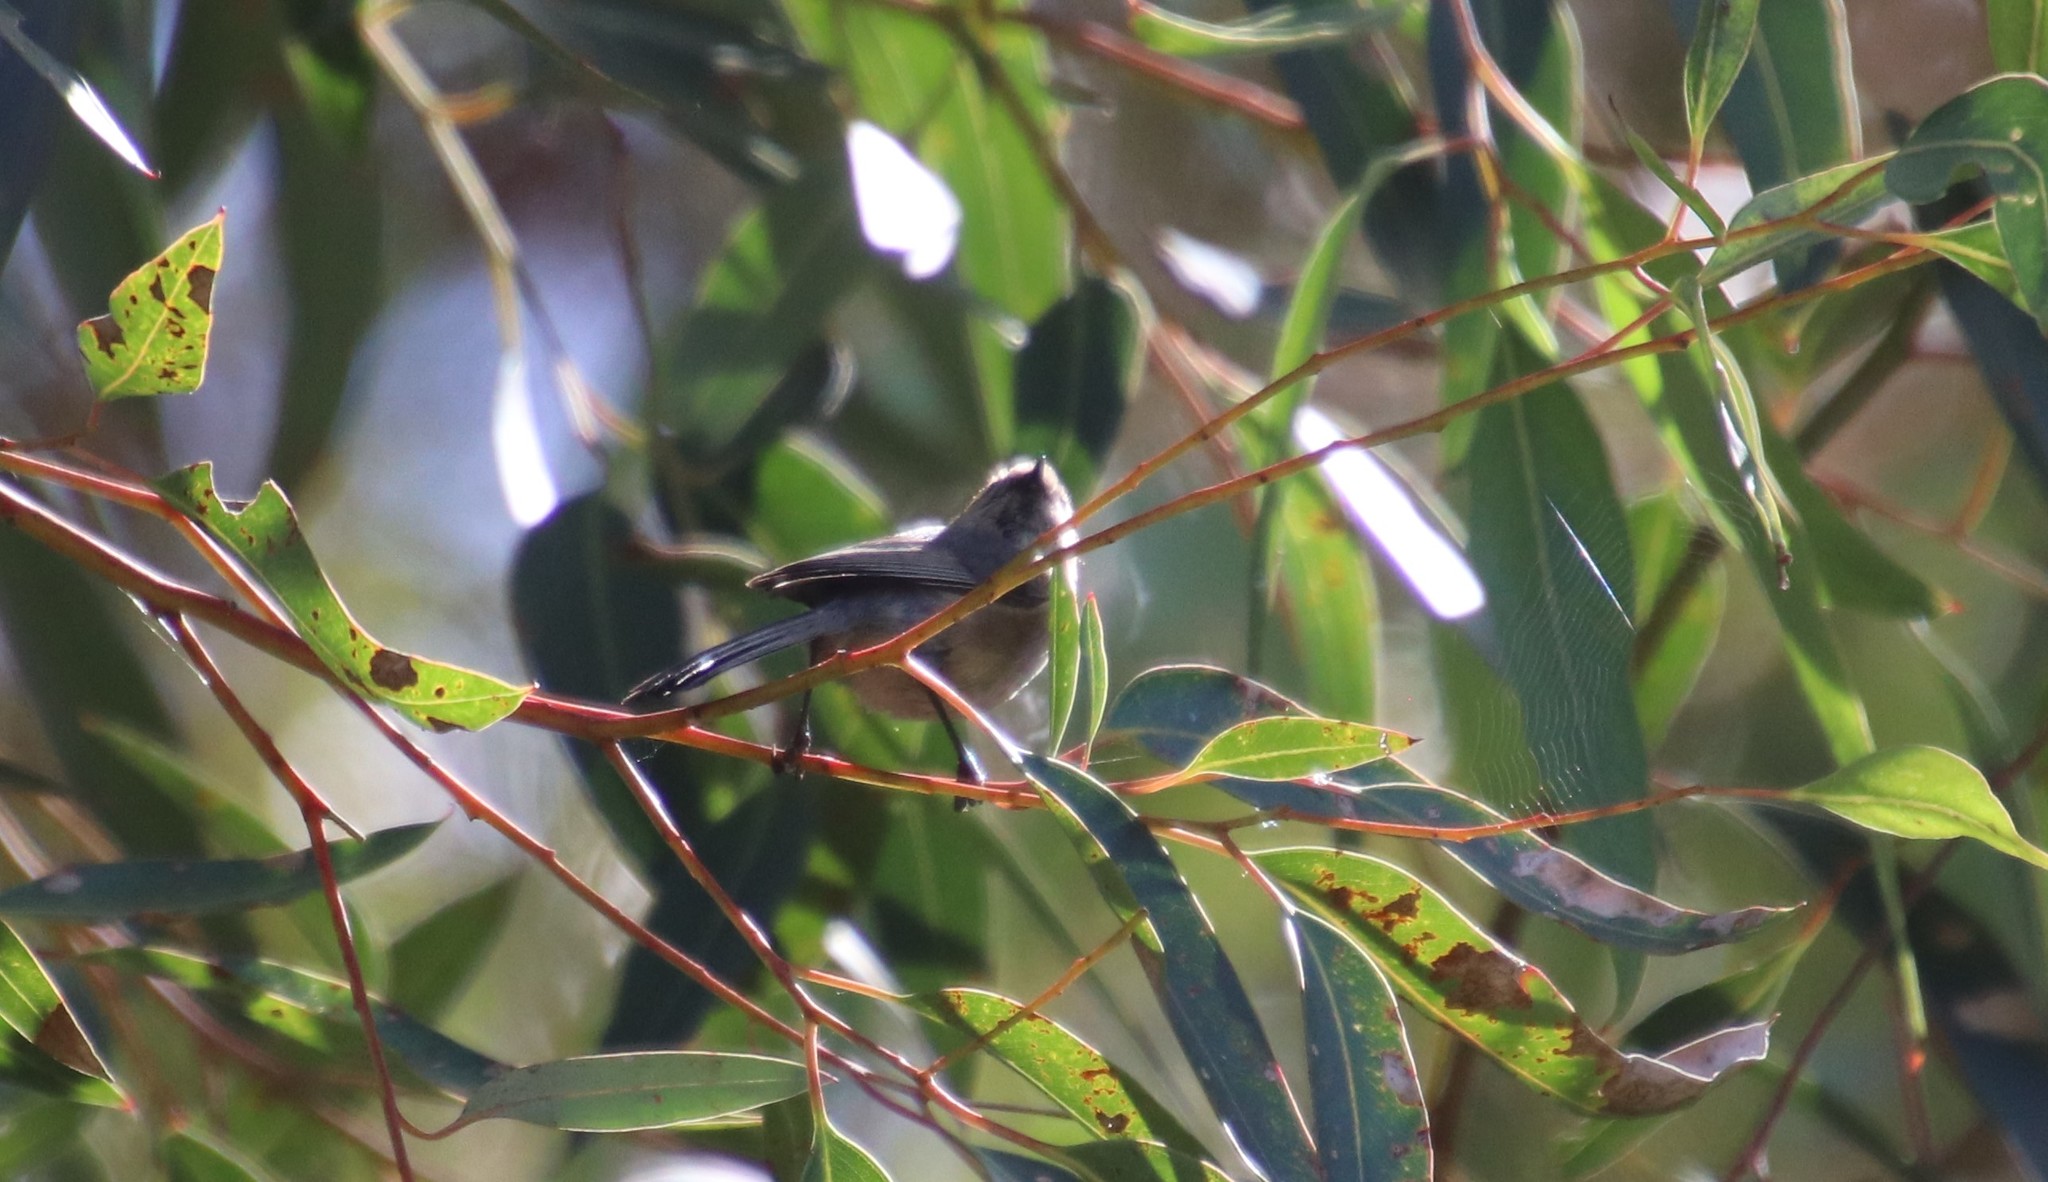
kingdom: Animalia
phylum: Chordata
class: Aves
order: Passeriformes
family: Aegithalidae
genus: Psaltriparus
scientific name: Psaltriparus minimus
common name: American bushtit
